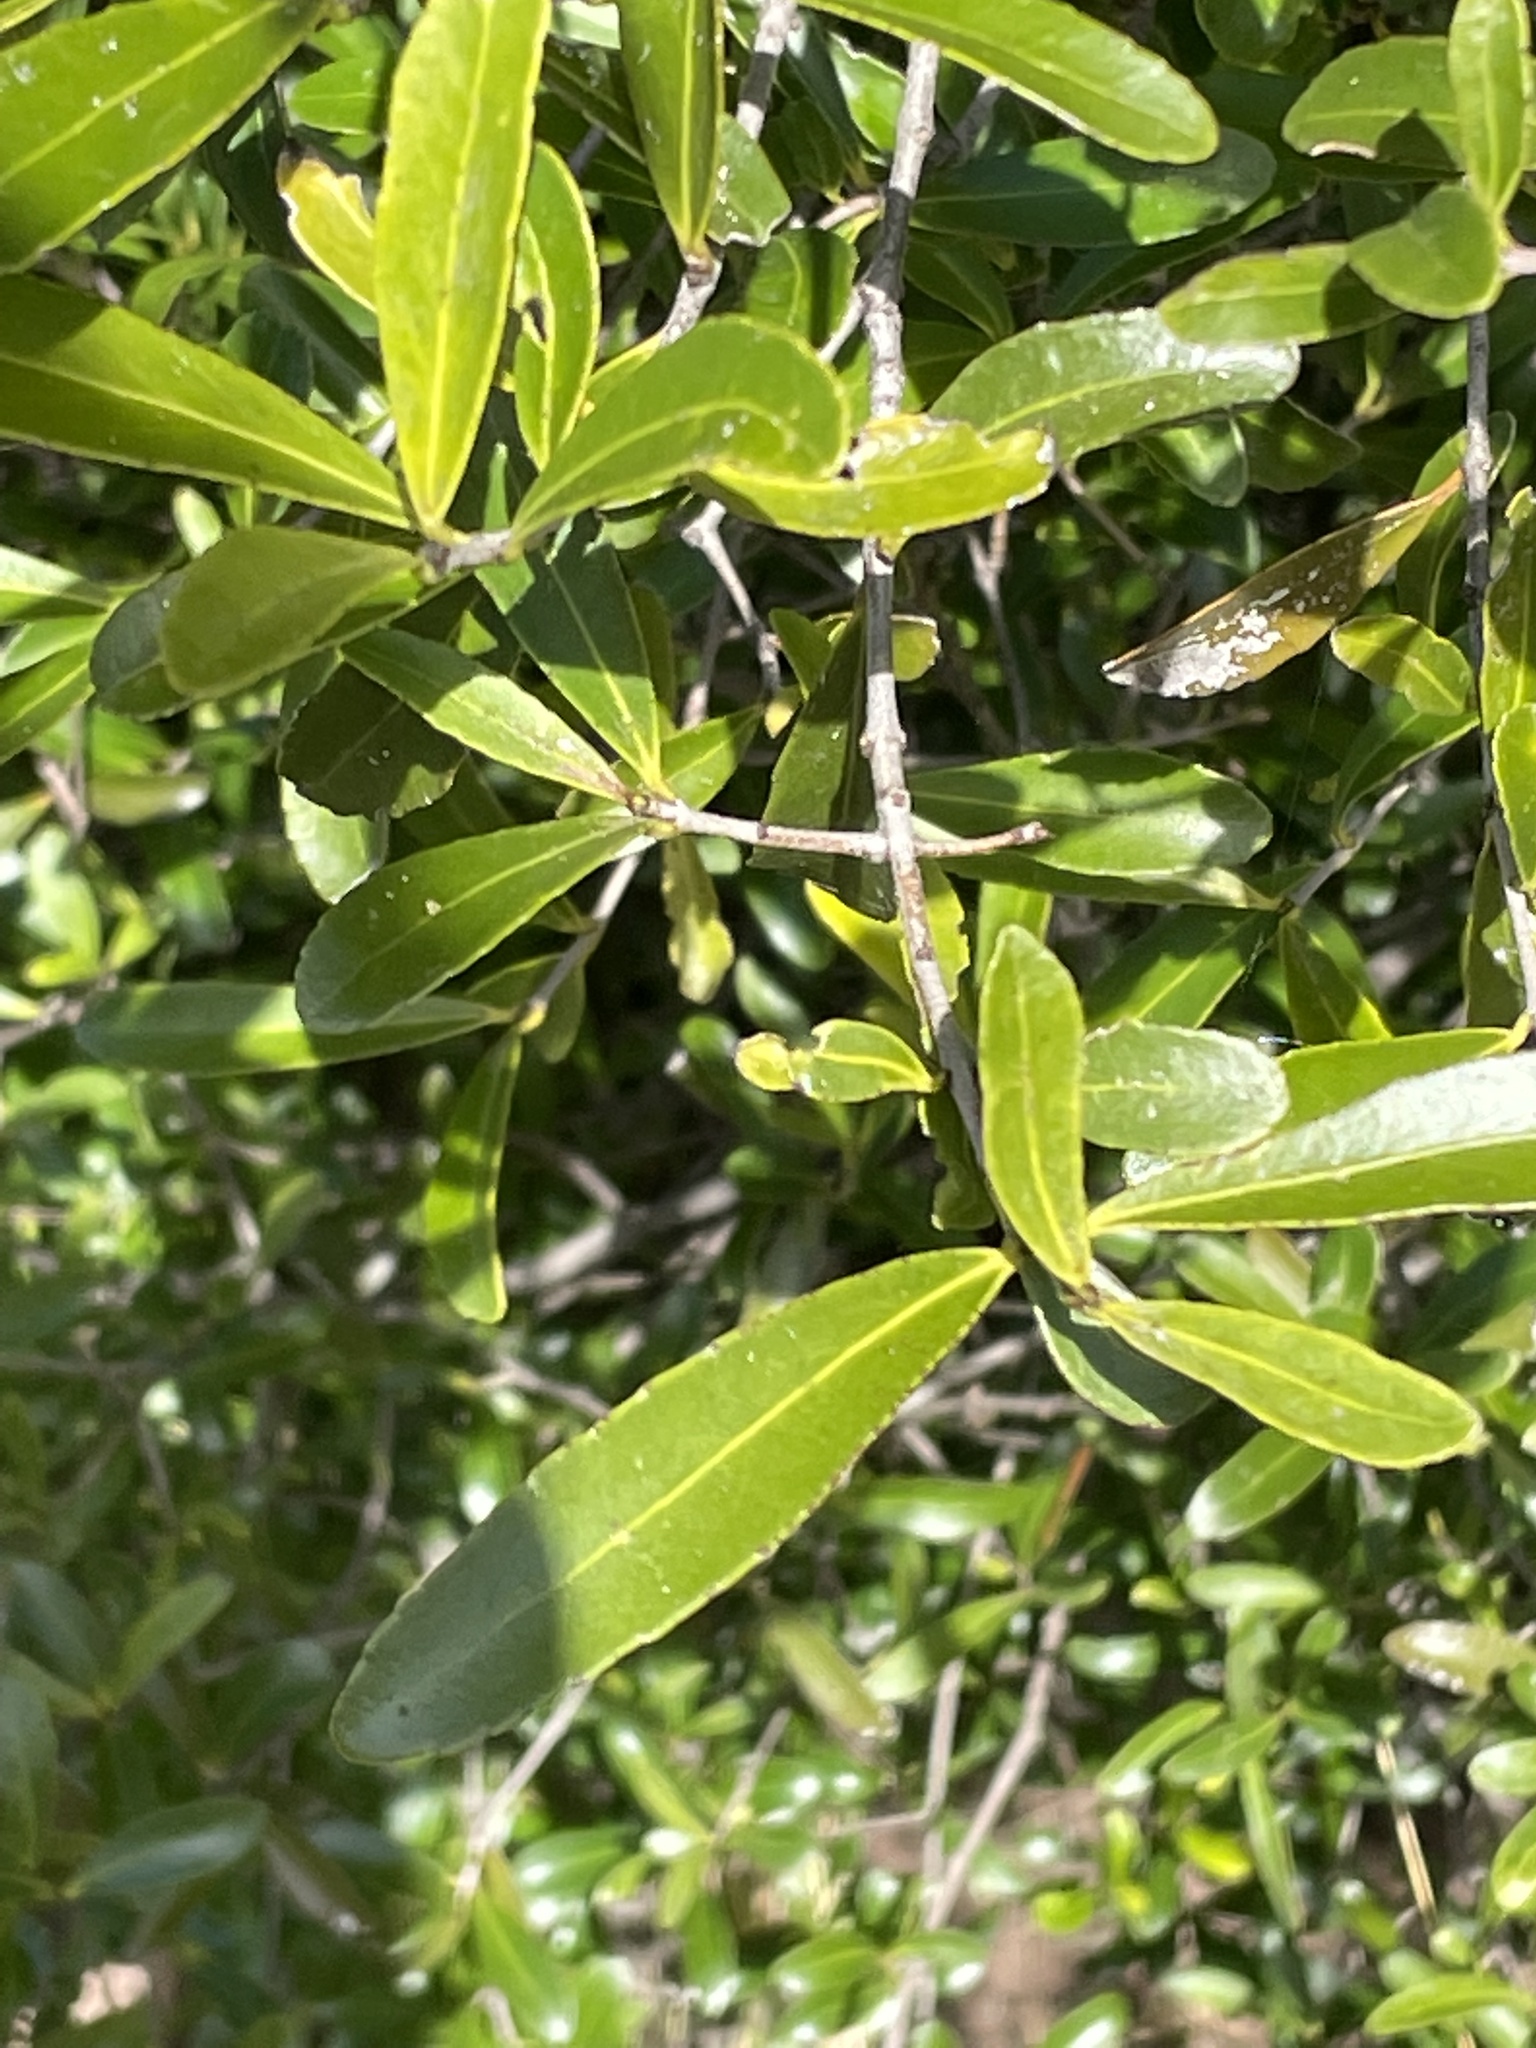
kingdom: Plantae
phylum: Tracheophyta
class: Magnoliopsida
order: Celastrales
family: Celastraceae
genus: Elaeodendron
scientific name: Elaeodendron australe
